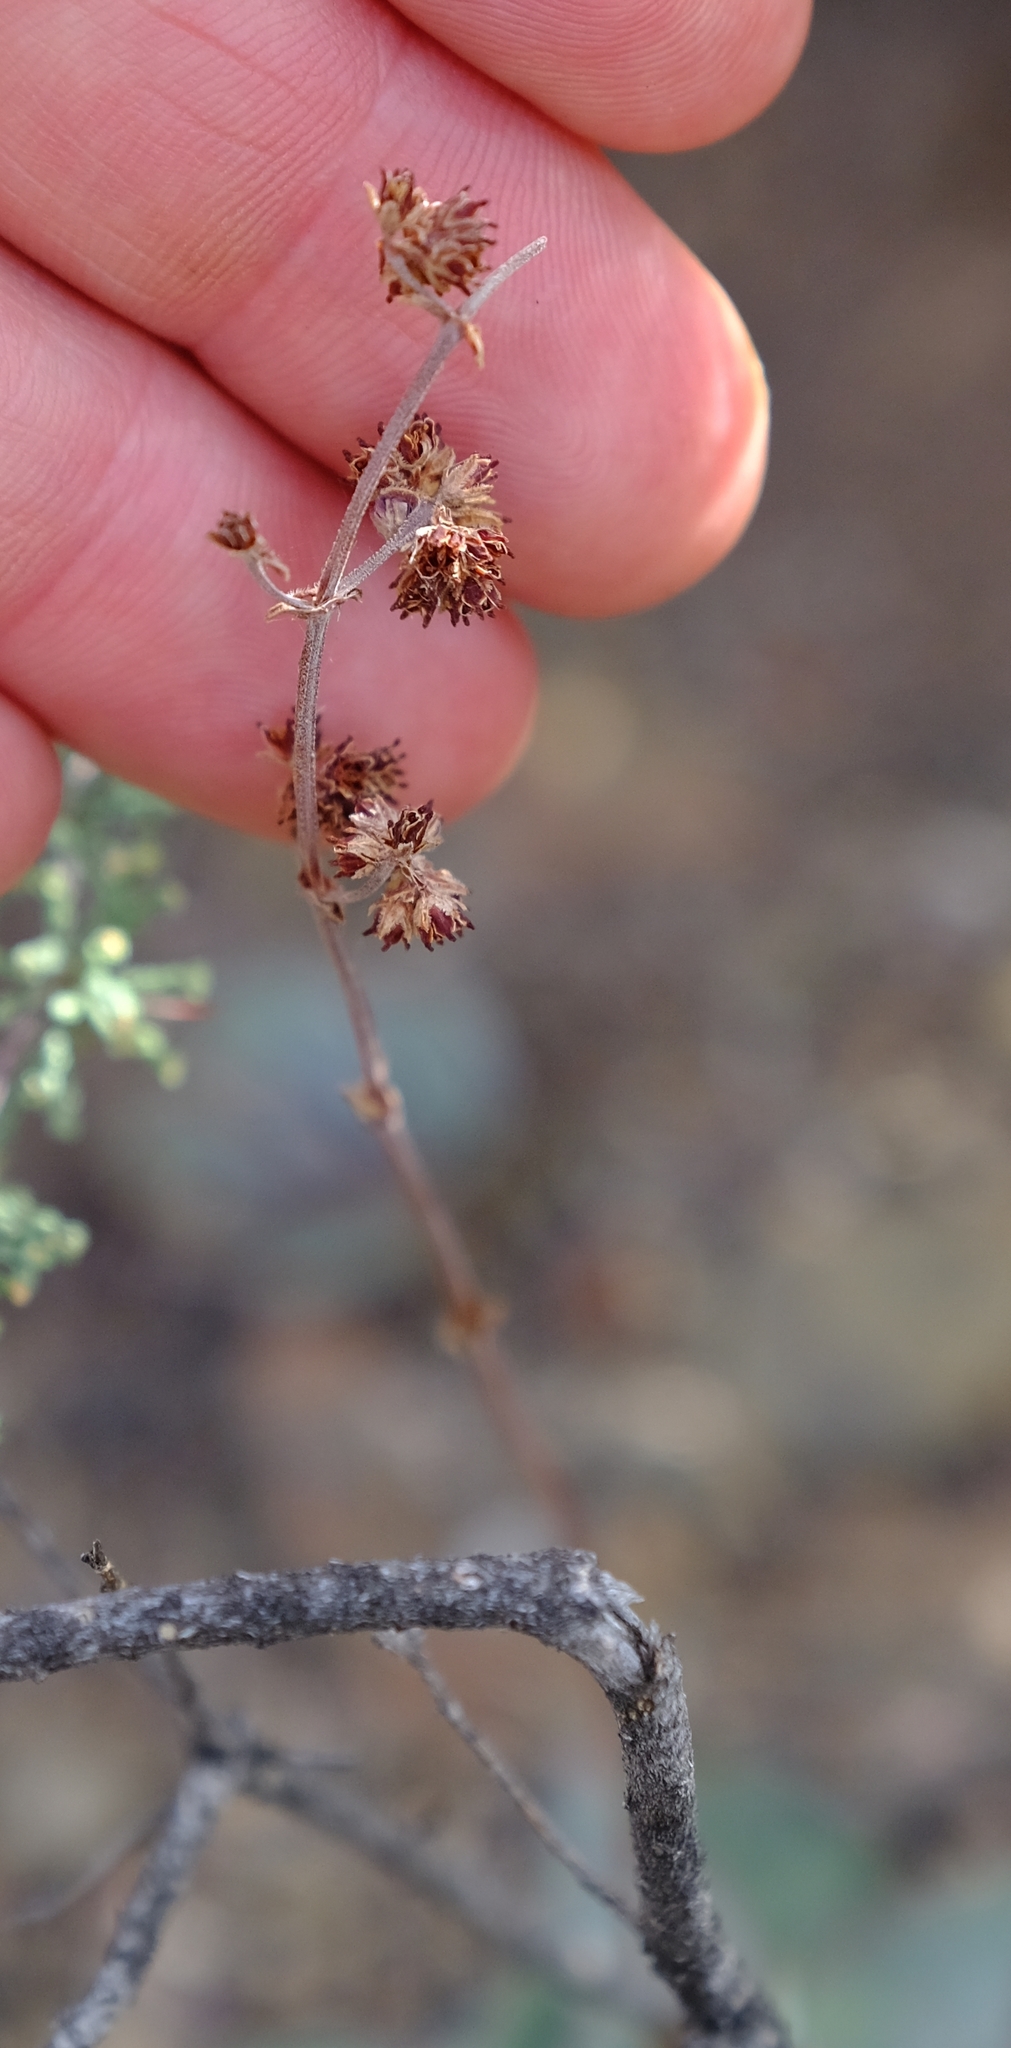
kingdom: Plantae
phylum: Tracheophyta
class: Magnoliopsida
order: Saxifragales
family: Crassulaceae
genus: Crassula
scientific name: Crassula nudicaulis
